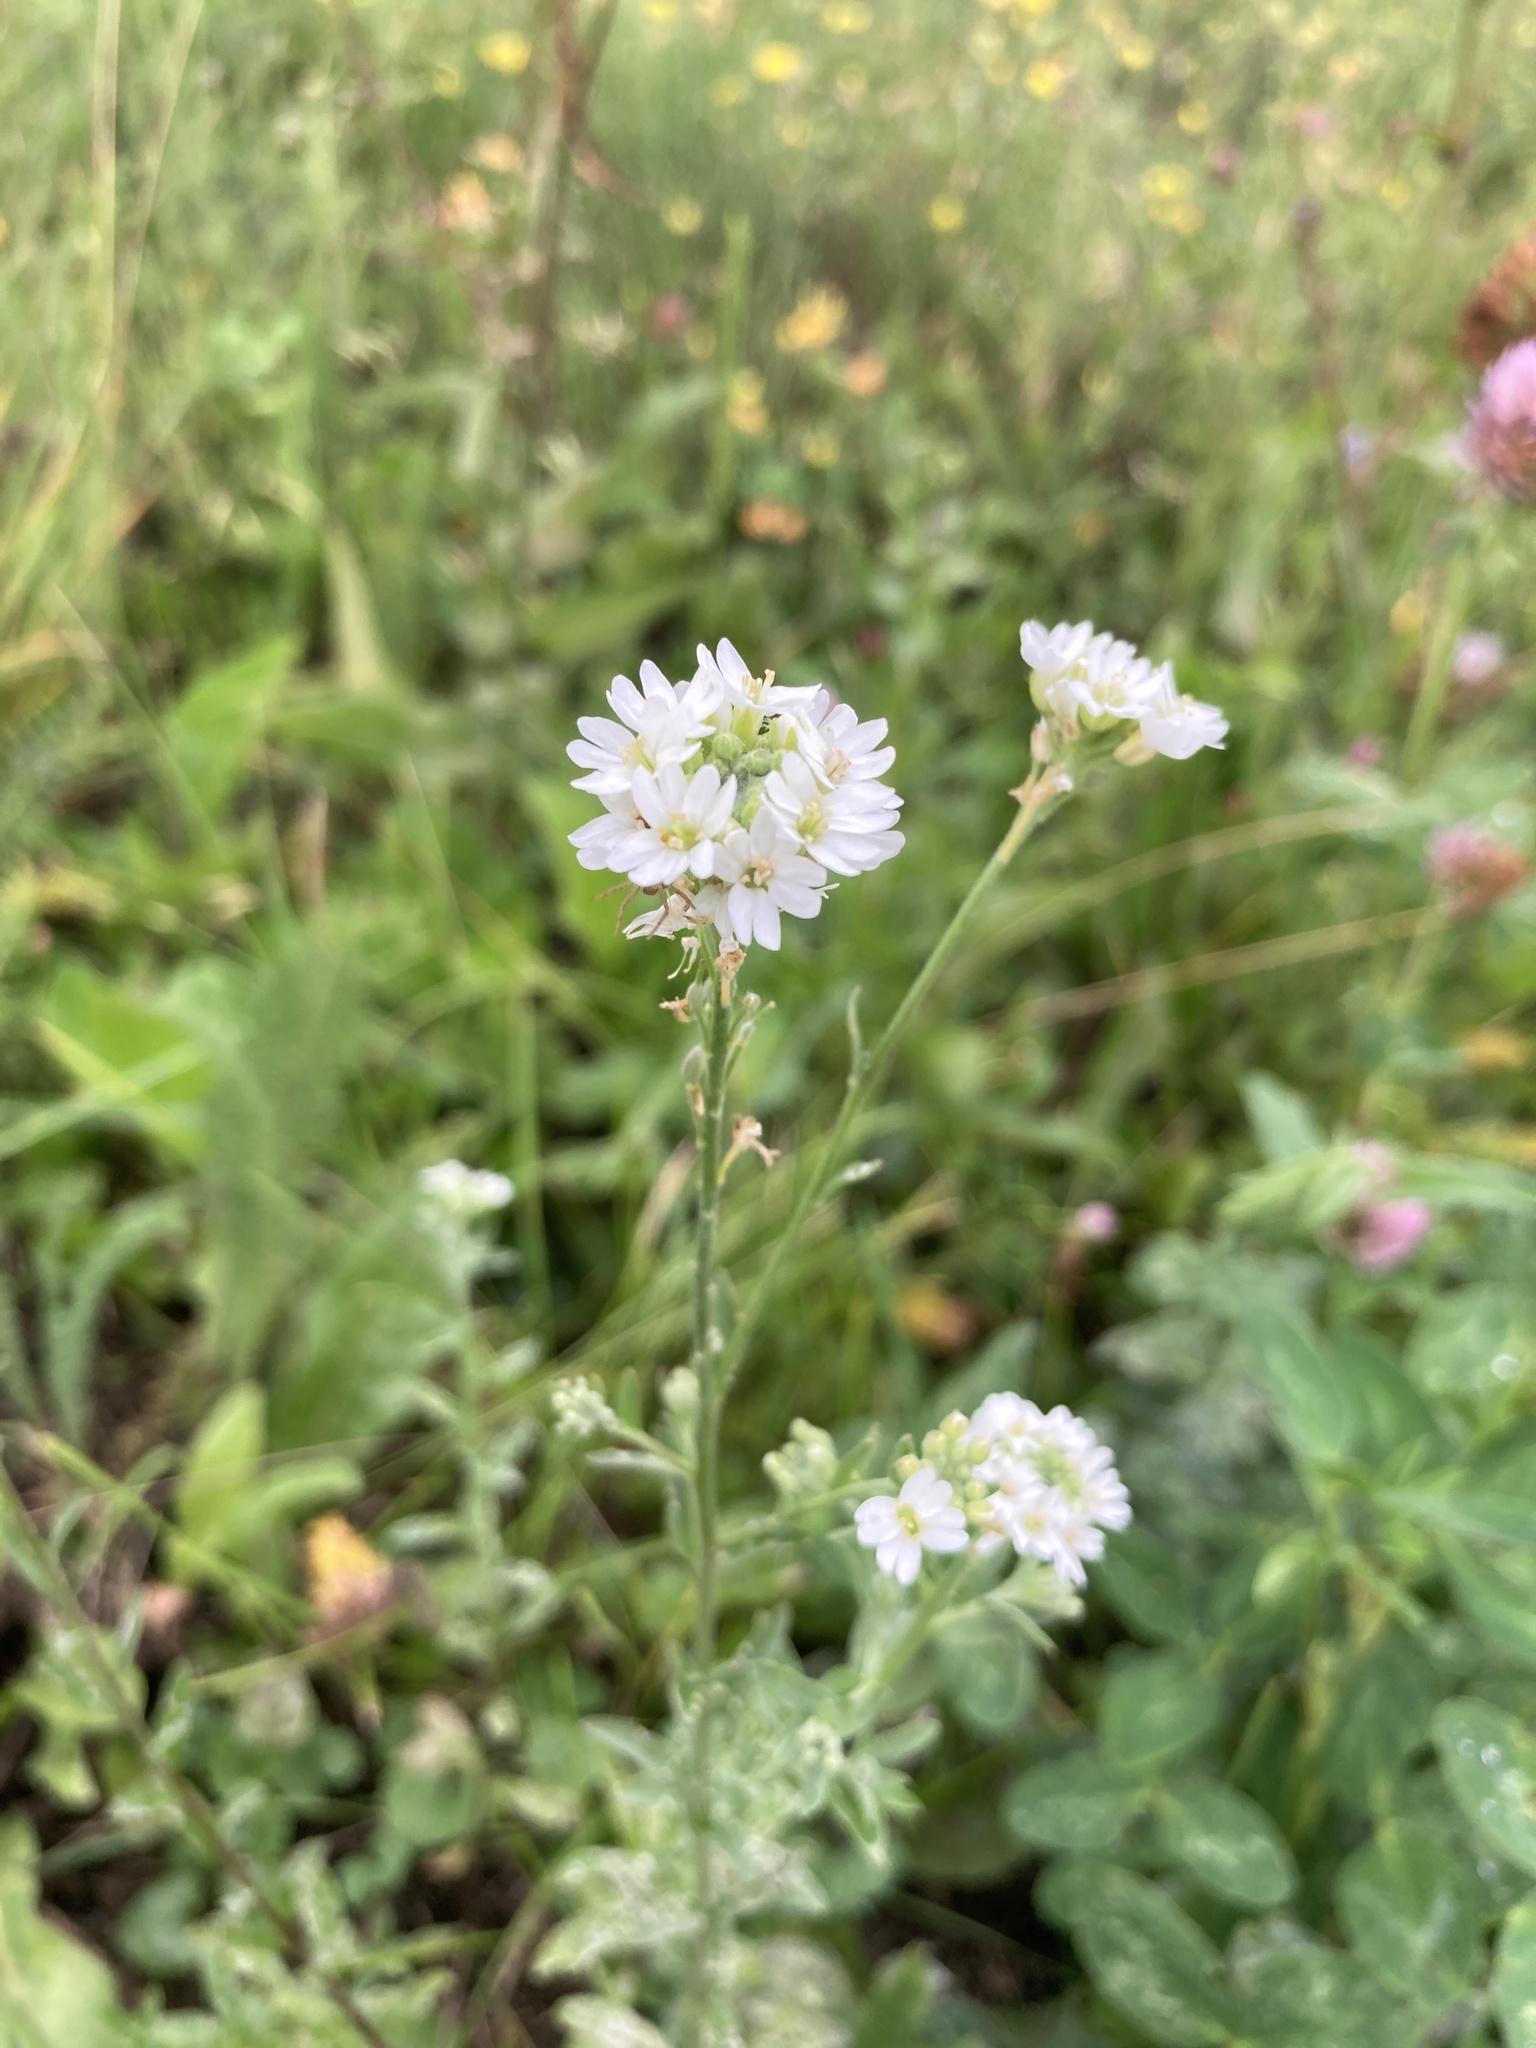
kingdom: Plantae
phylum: Tracheophyta
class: Magnoliopsida
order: Brassicales
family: Brassicaceae
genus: Berteroa
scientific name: Berteroa incana
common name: Hoary alison
